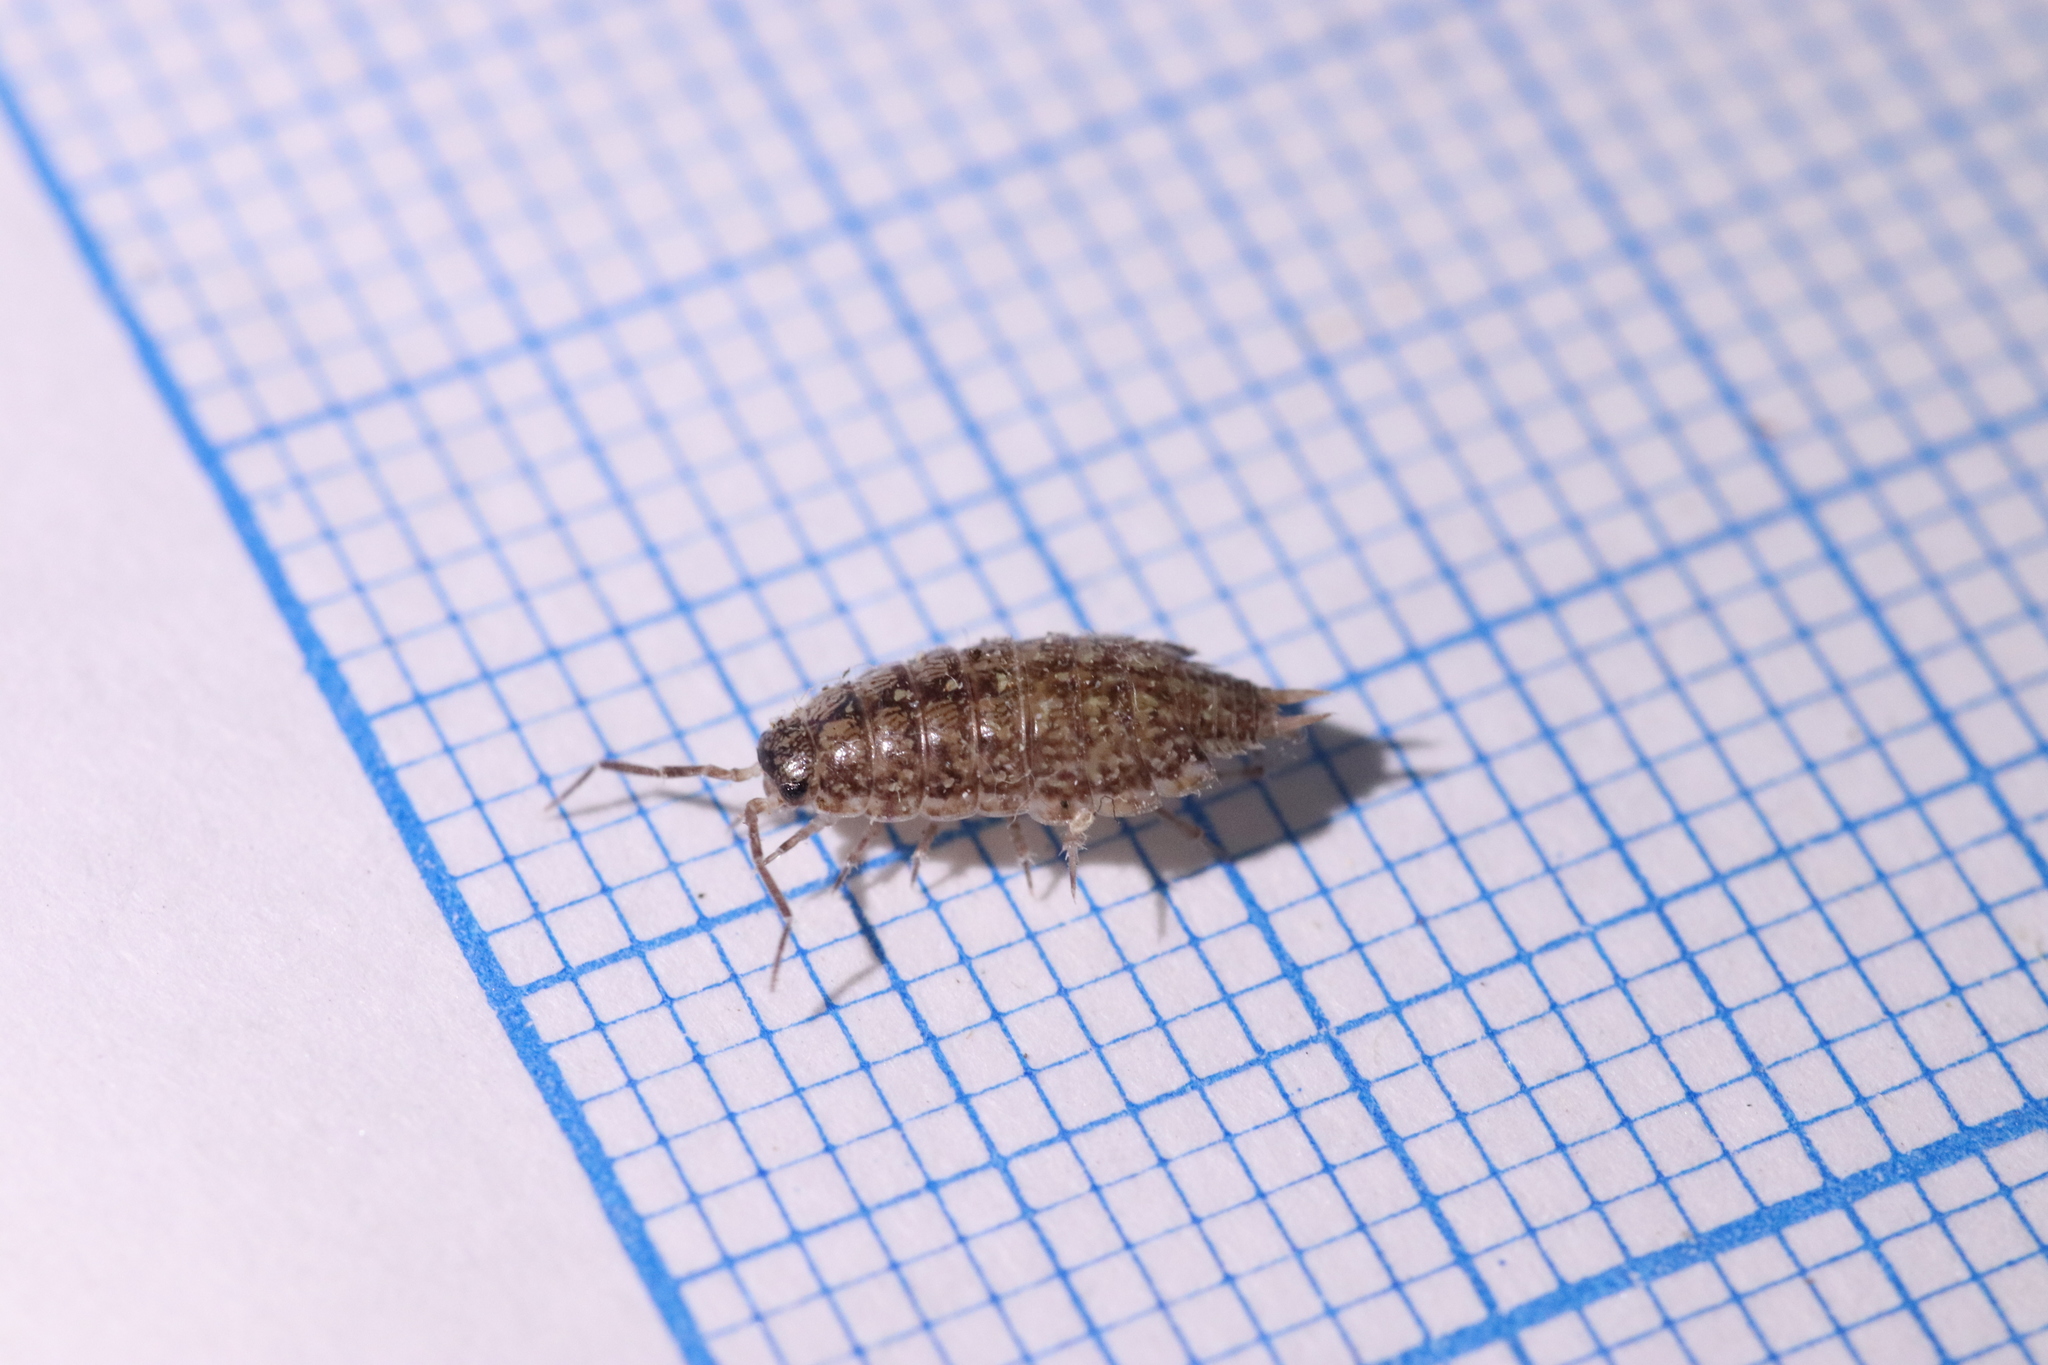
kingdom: Animalia
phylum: Arthropoda
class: Malacostraca
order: Isopoda
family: Philosciidae
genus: Philoscia
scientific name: Philoscia affinis
